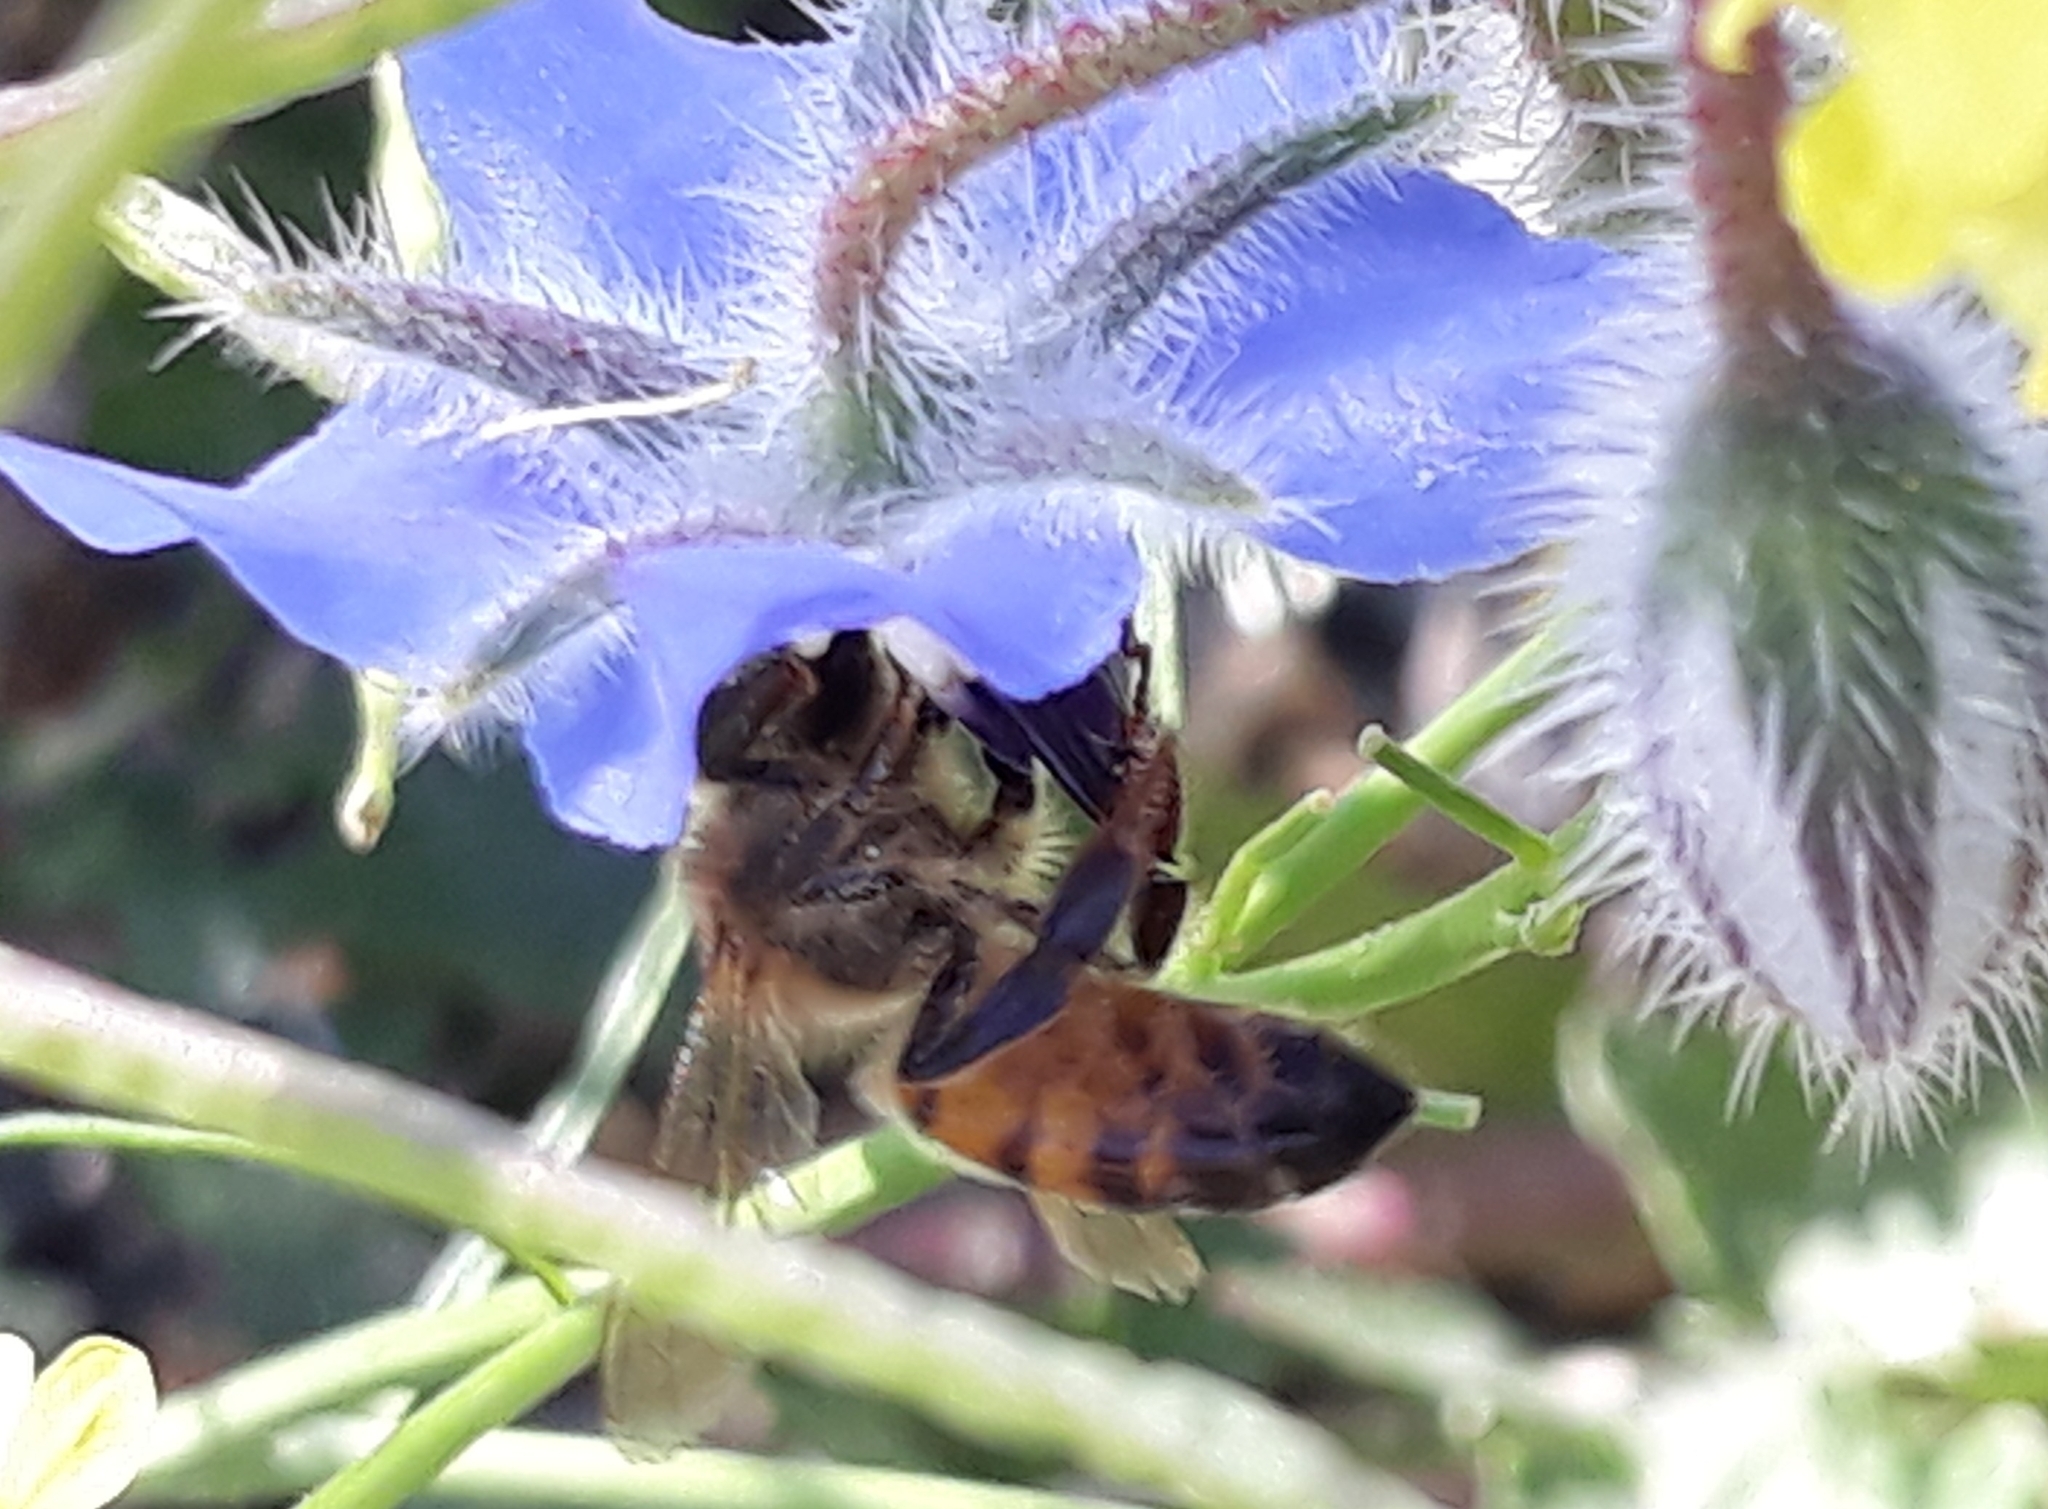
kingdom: Animalia
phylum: Arthropoda
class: Insecta
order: Hymenoptera
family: Apidae
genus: Apis
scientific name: Apis mellifera
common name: Honey bee
